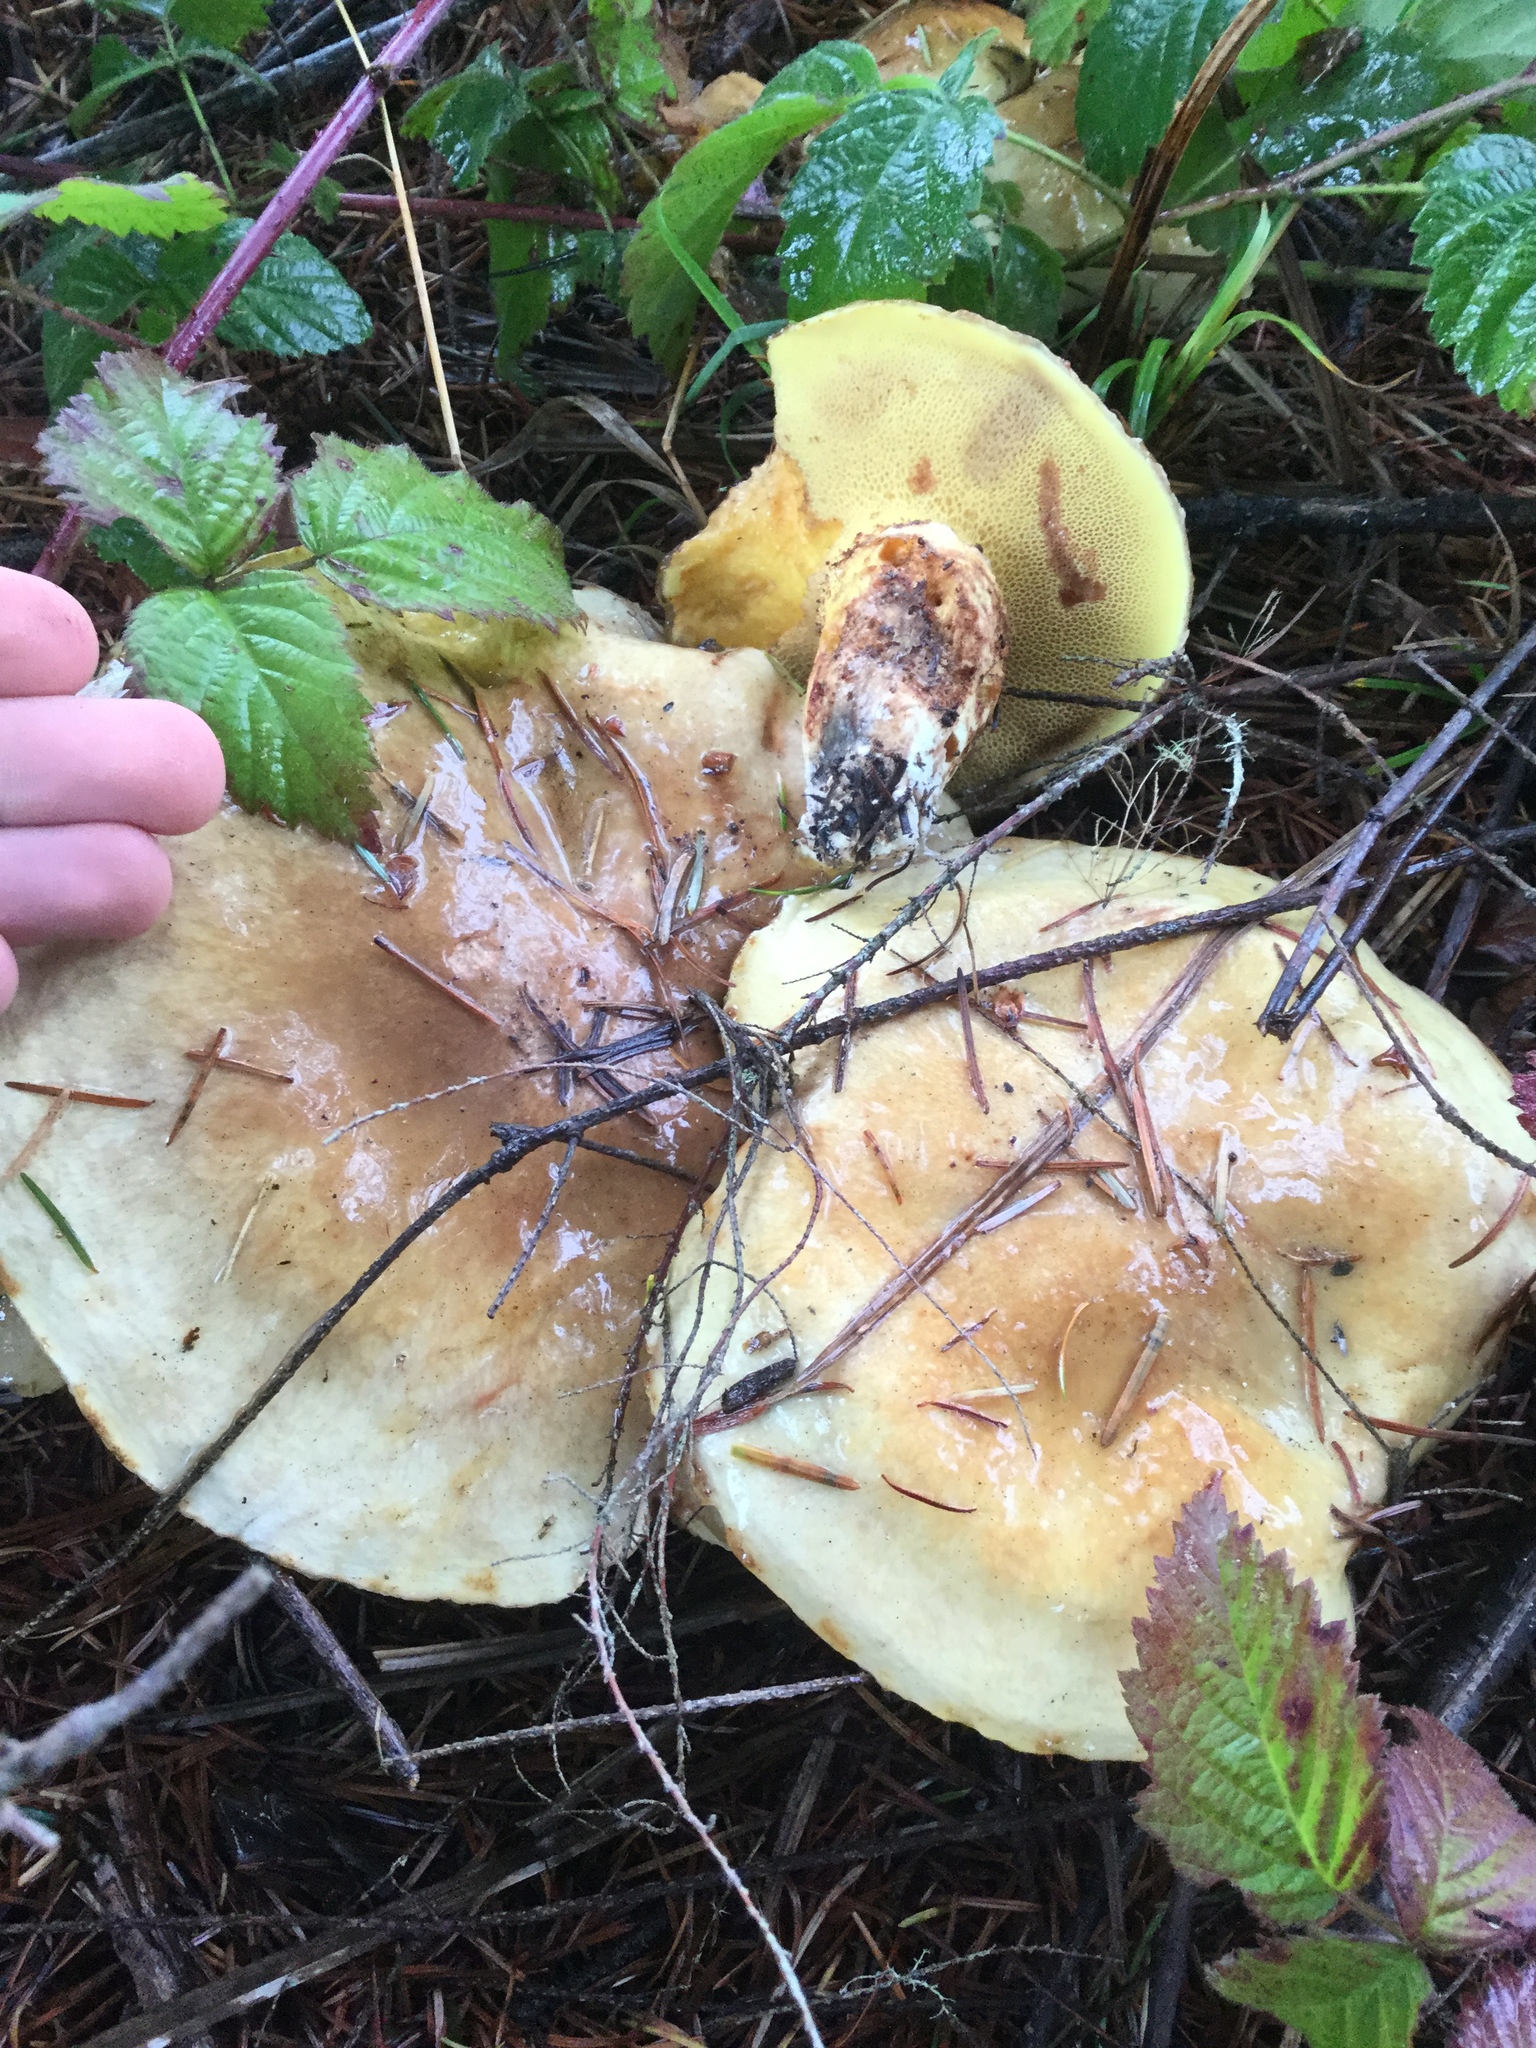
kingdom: Fungi
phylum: Basidiomycota
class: Agaricomycetes
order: Boletales
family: Suillaceae
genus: Suillus
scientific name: Suillus caerulescens
